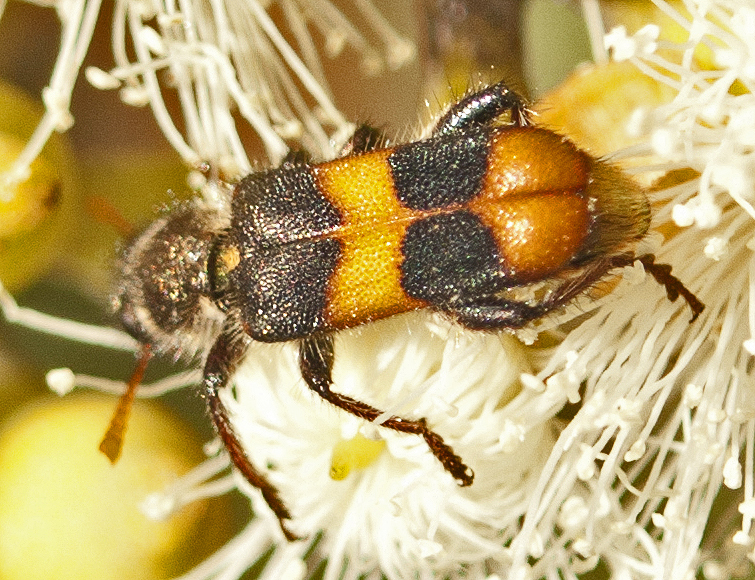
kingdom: Animalia
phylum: Arthropoda
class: Insecta
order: Coleoptera
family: Cleridae
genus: Eleale
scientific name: Eleale
